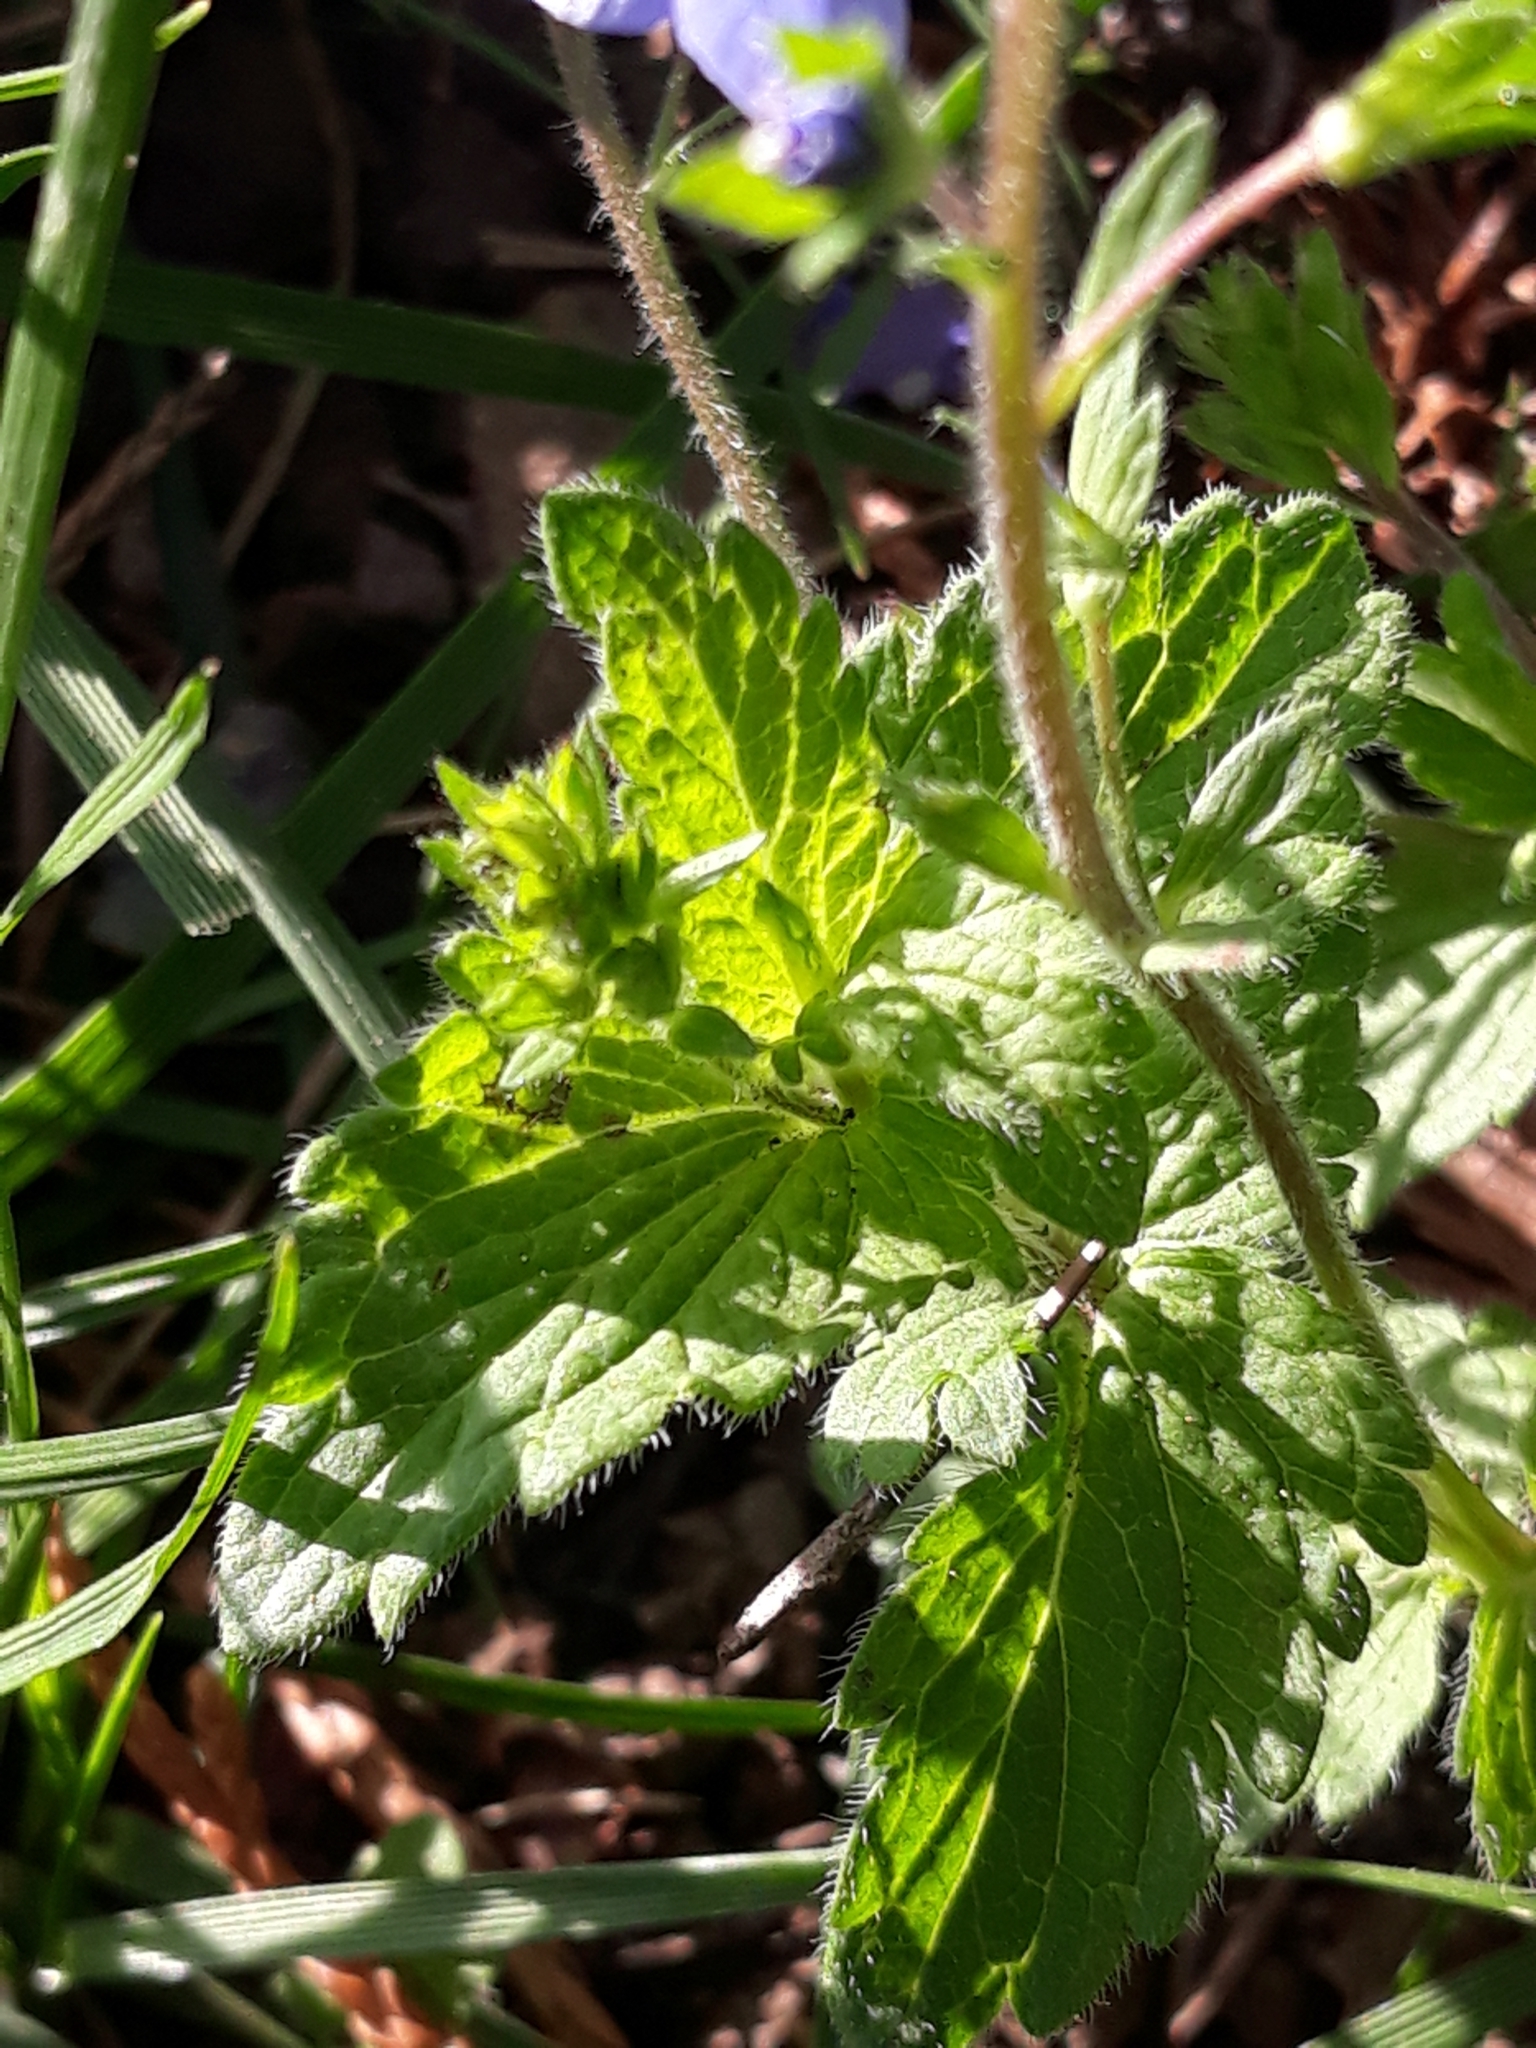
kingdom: Plantae
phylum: Tracheophyta
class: Magnoliopsida
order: Lamiales
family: Plantaginaceae
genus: Veronica
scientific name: Veronica chamaedrys
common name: Germander speedwell
